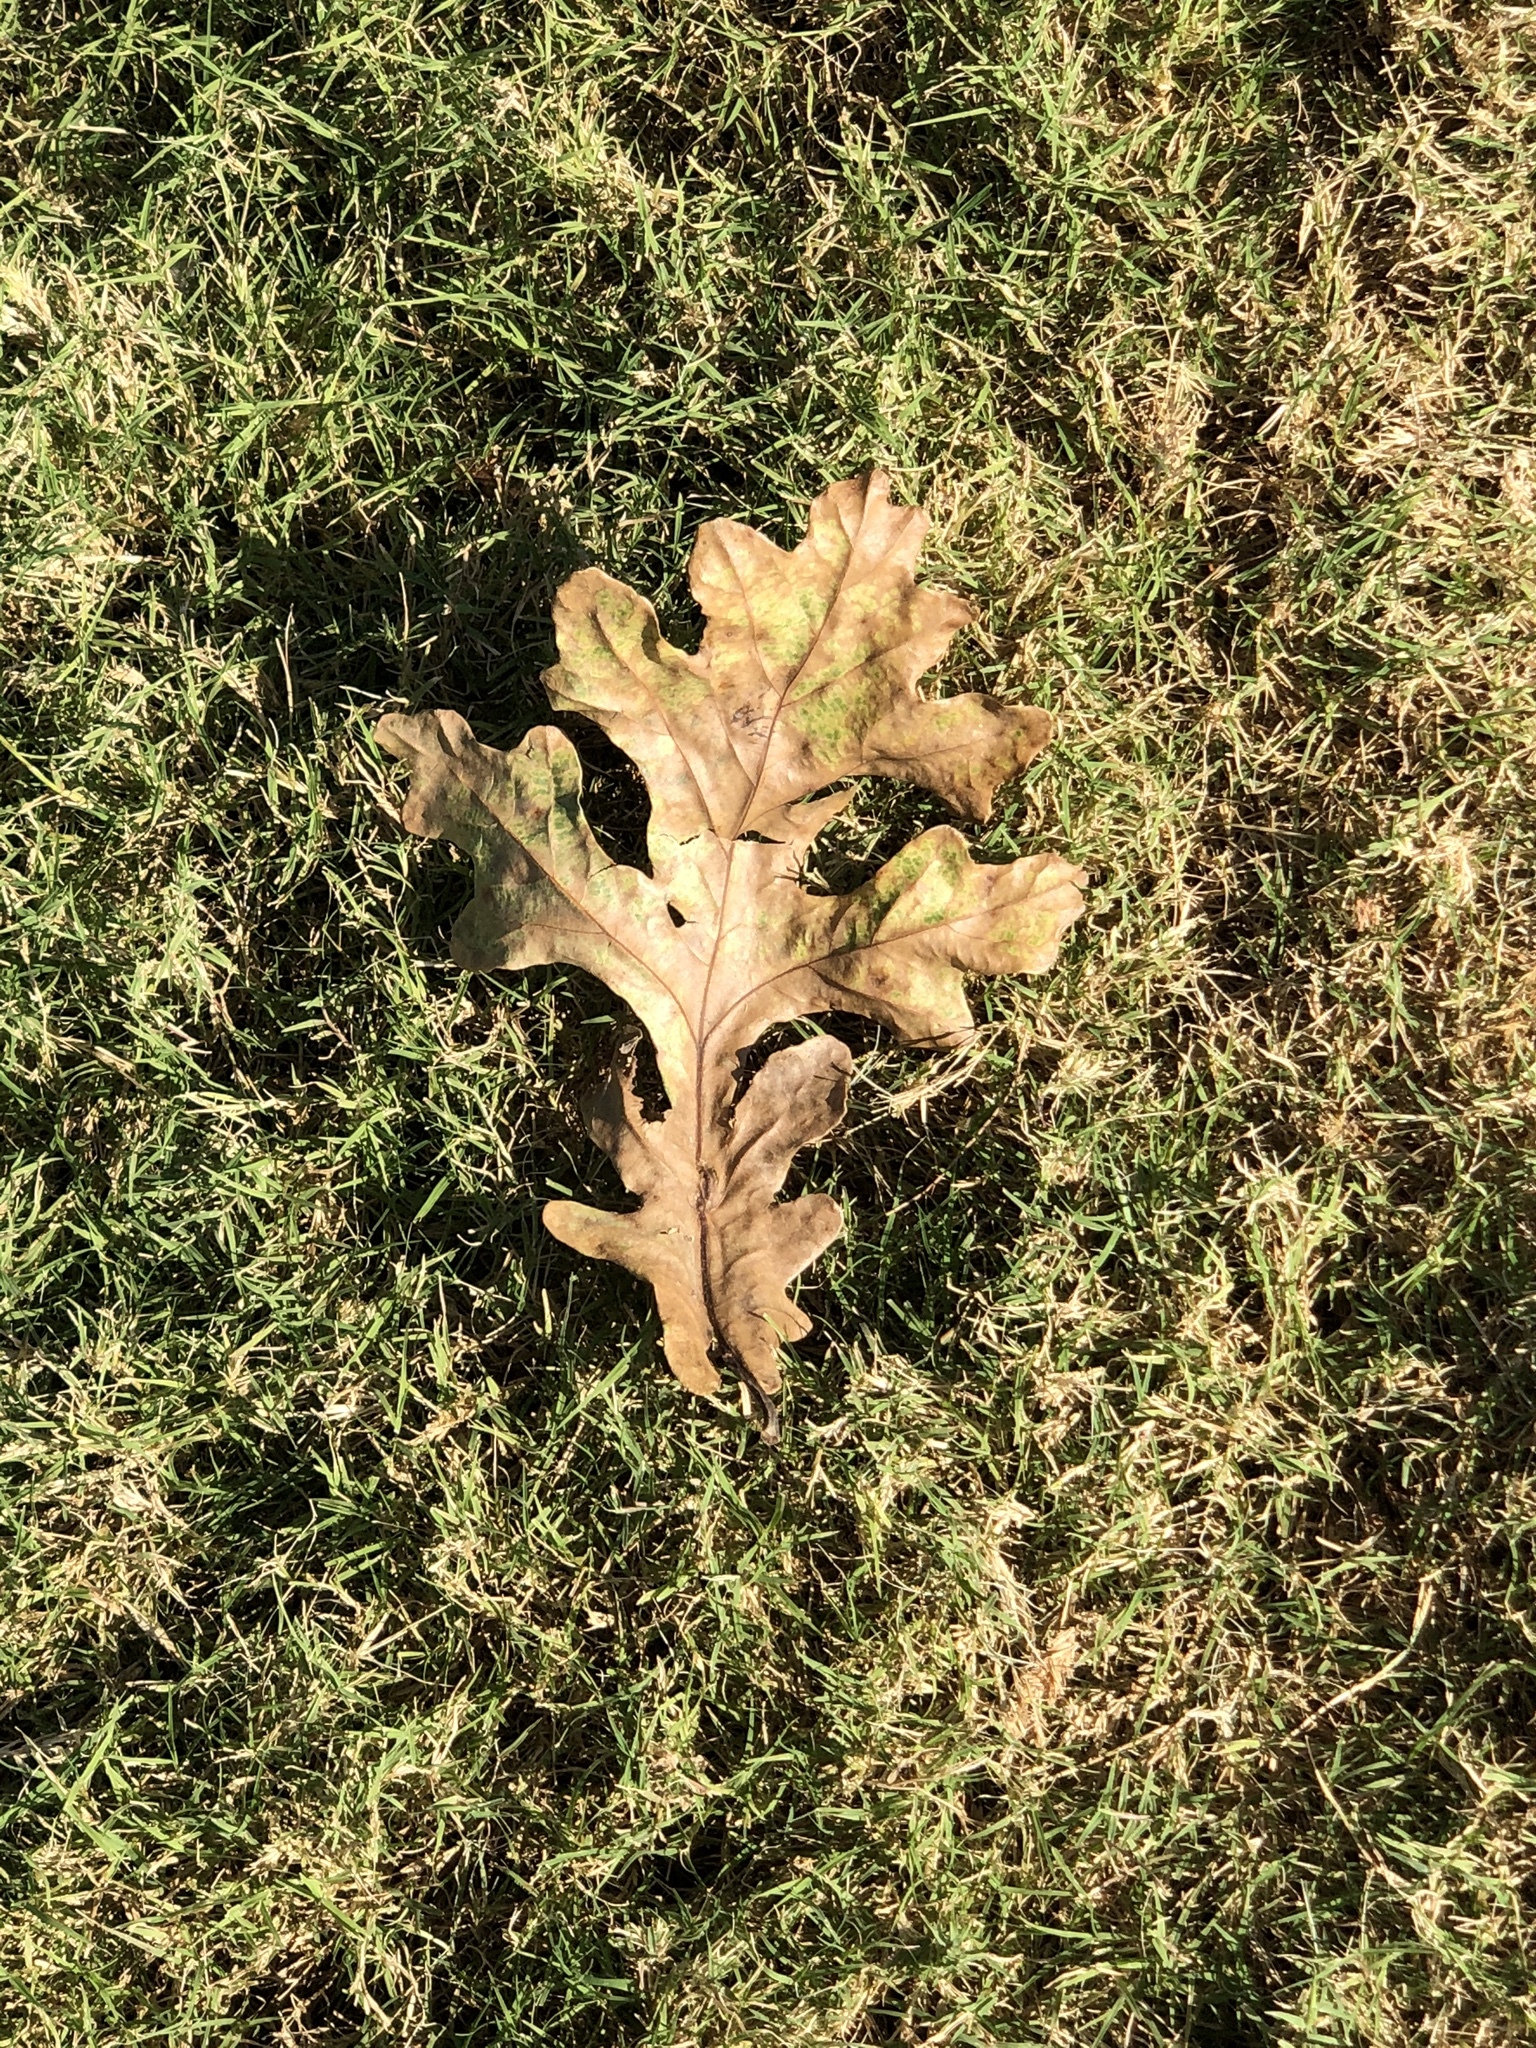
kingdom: Plantae
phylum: Tracheophyta
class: Magnoliopsida
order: Fagales
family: Fagaceae
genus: Quercus
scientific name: Quercus macrocarpa
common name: Bur oak
